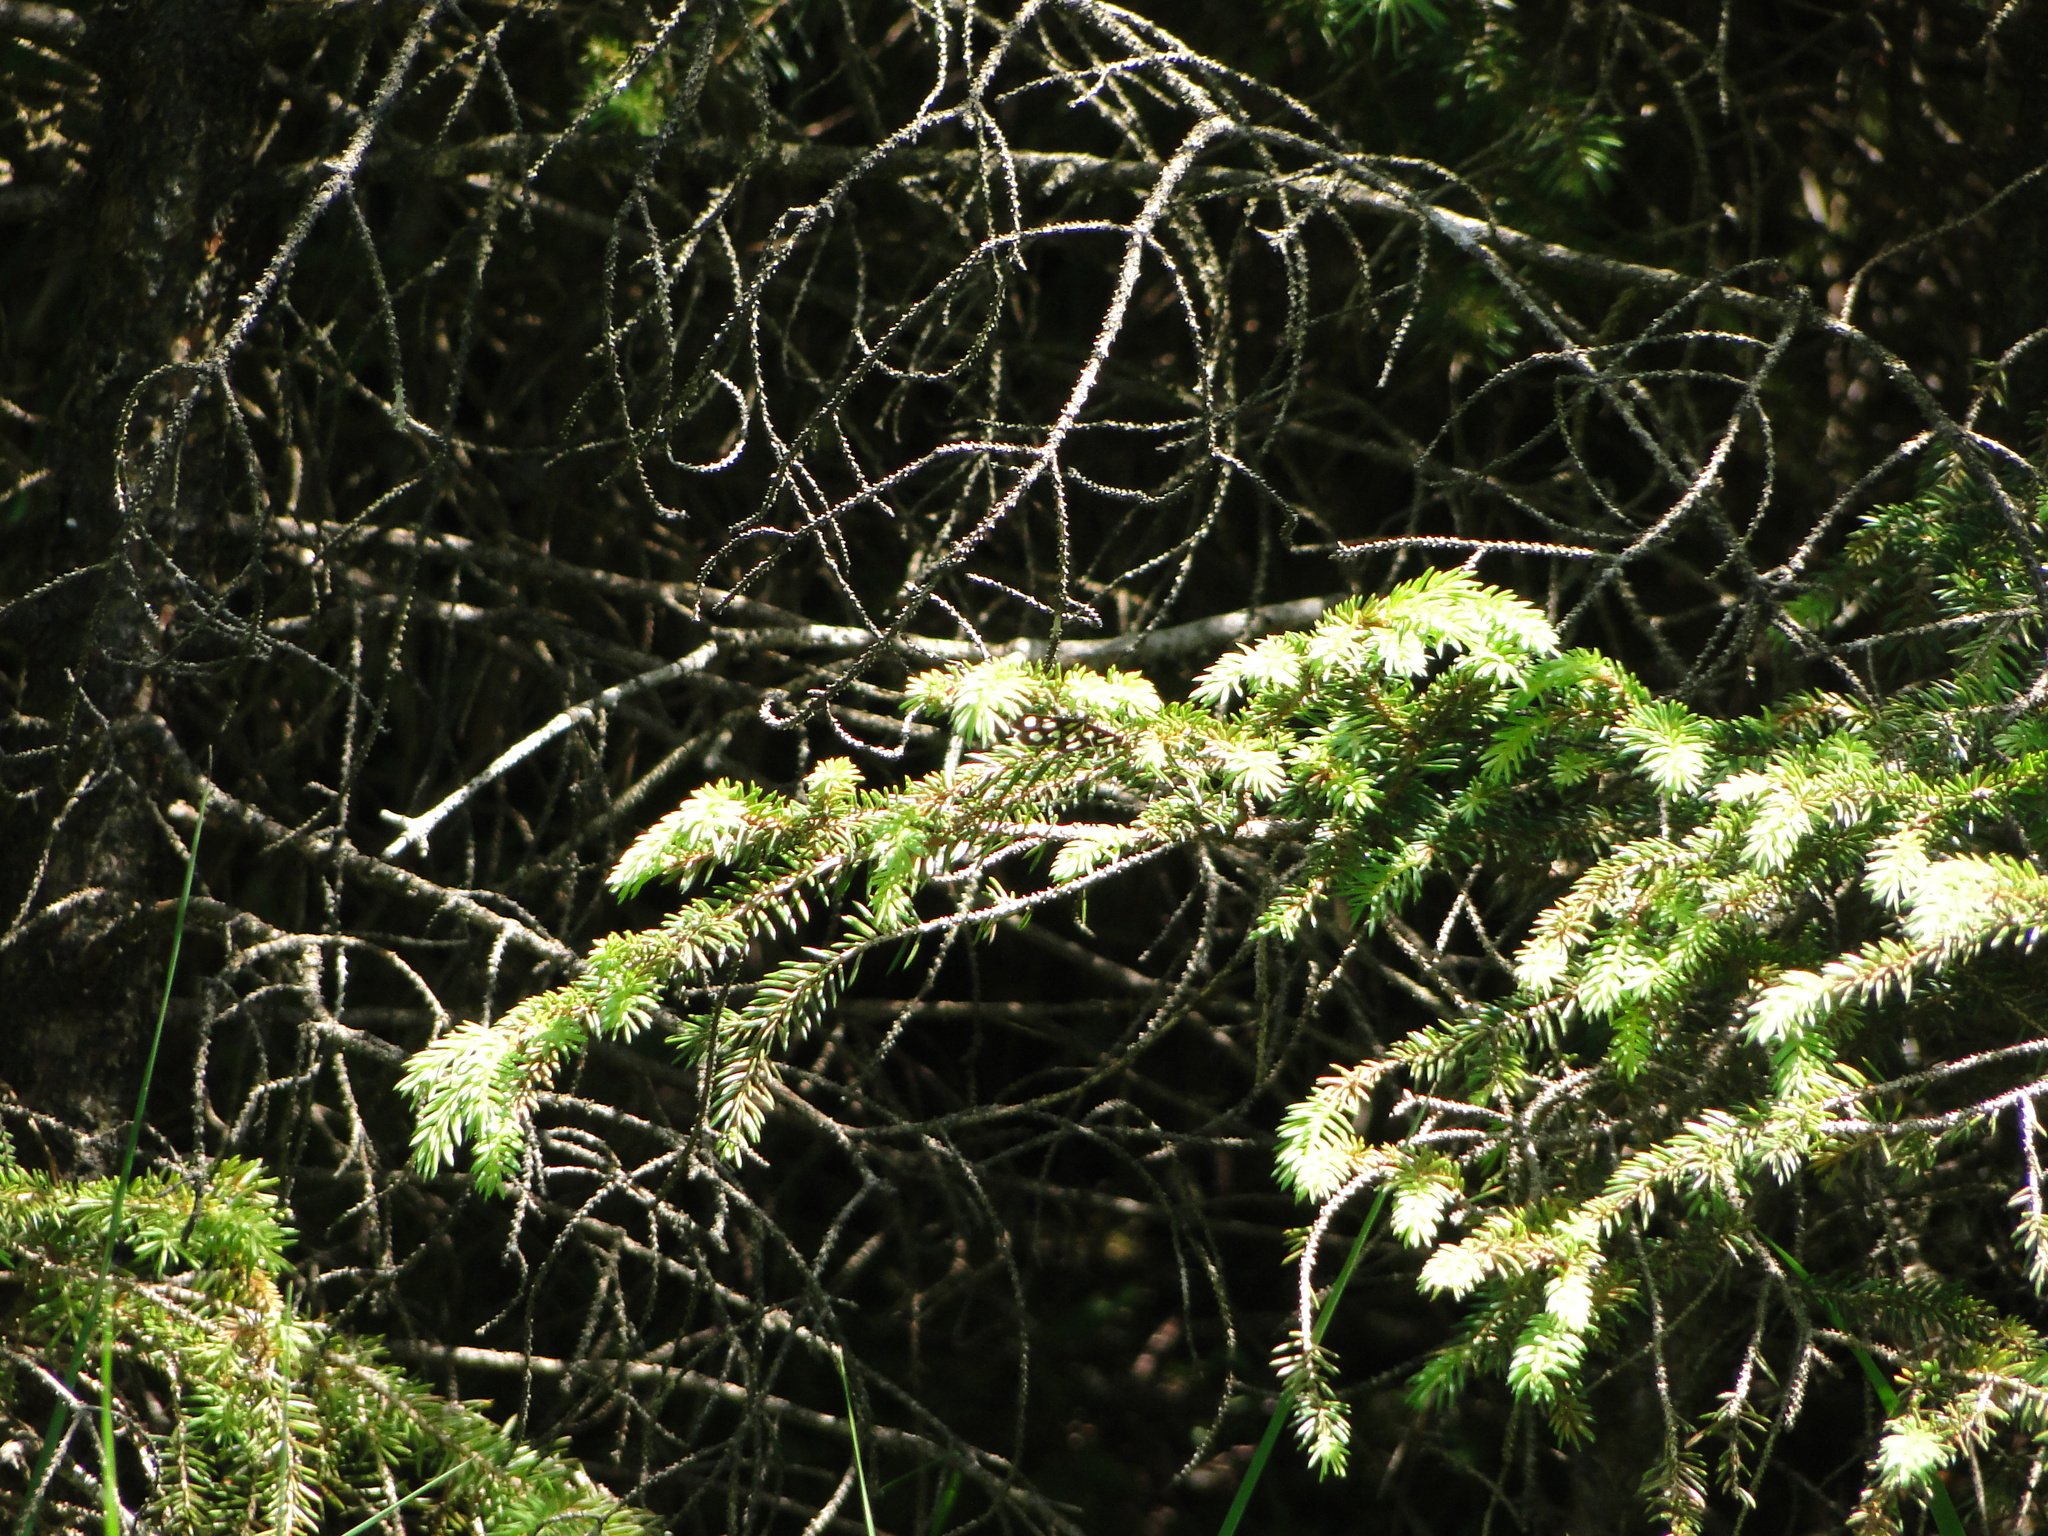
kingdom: Animalia
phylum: Arthropoda
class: Insecta
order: Lepidoptera
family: Crambidae
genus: Anania
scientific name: Anania funebris
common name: White-spotted sable moth
